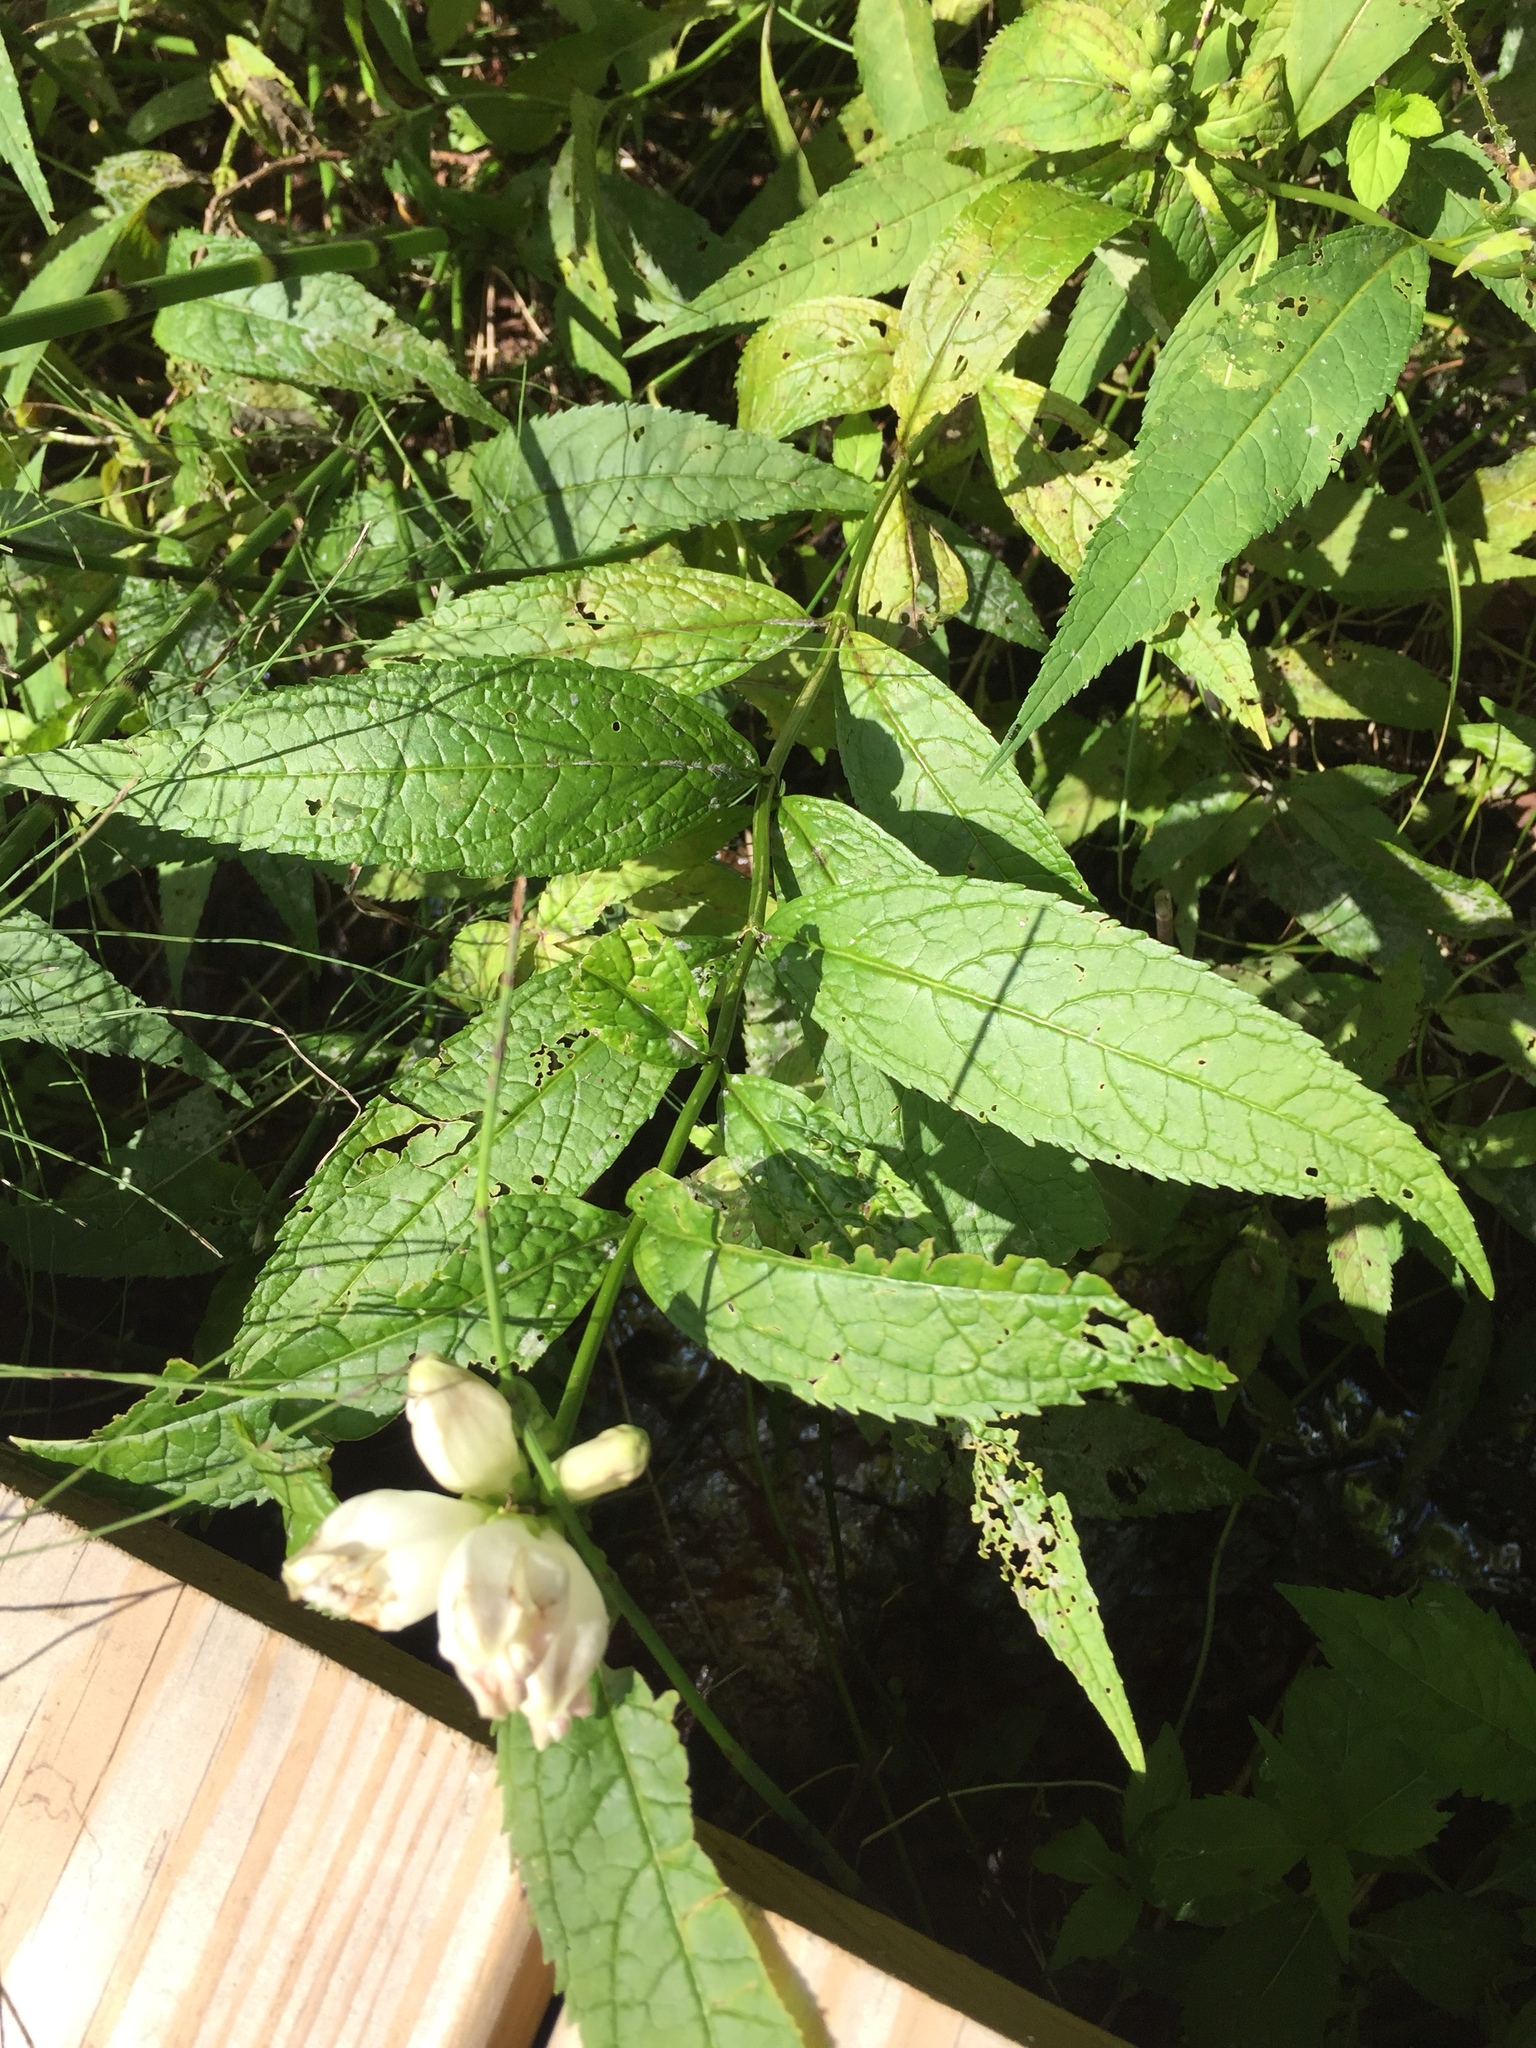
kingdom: Plantae
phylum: Tracheophyta
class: Magnoliopsida
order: Lamiales
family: Plantaginaceae
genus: Chelone
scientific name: Chelone glabra
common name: Snakehead
